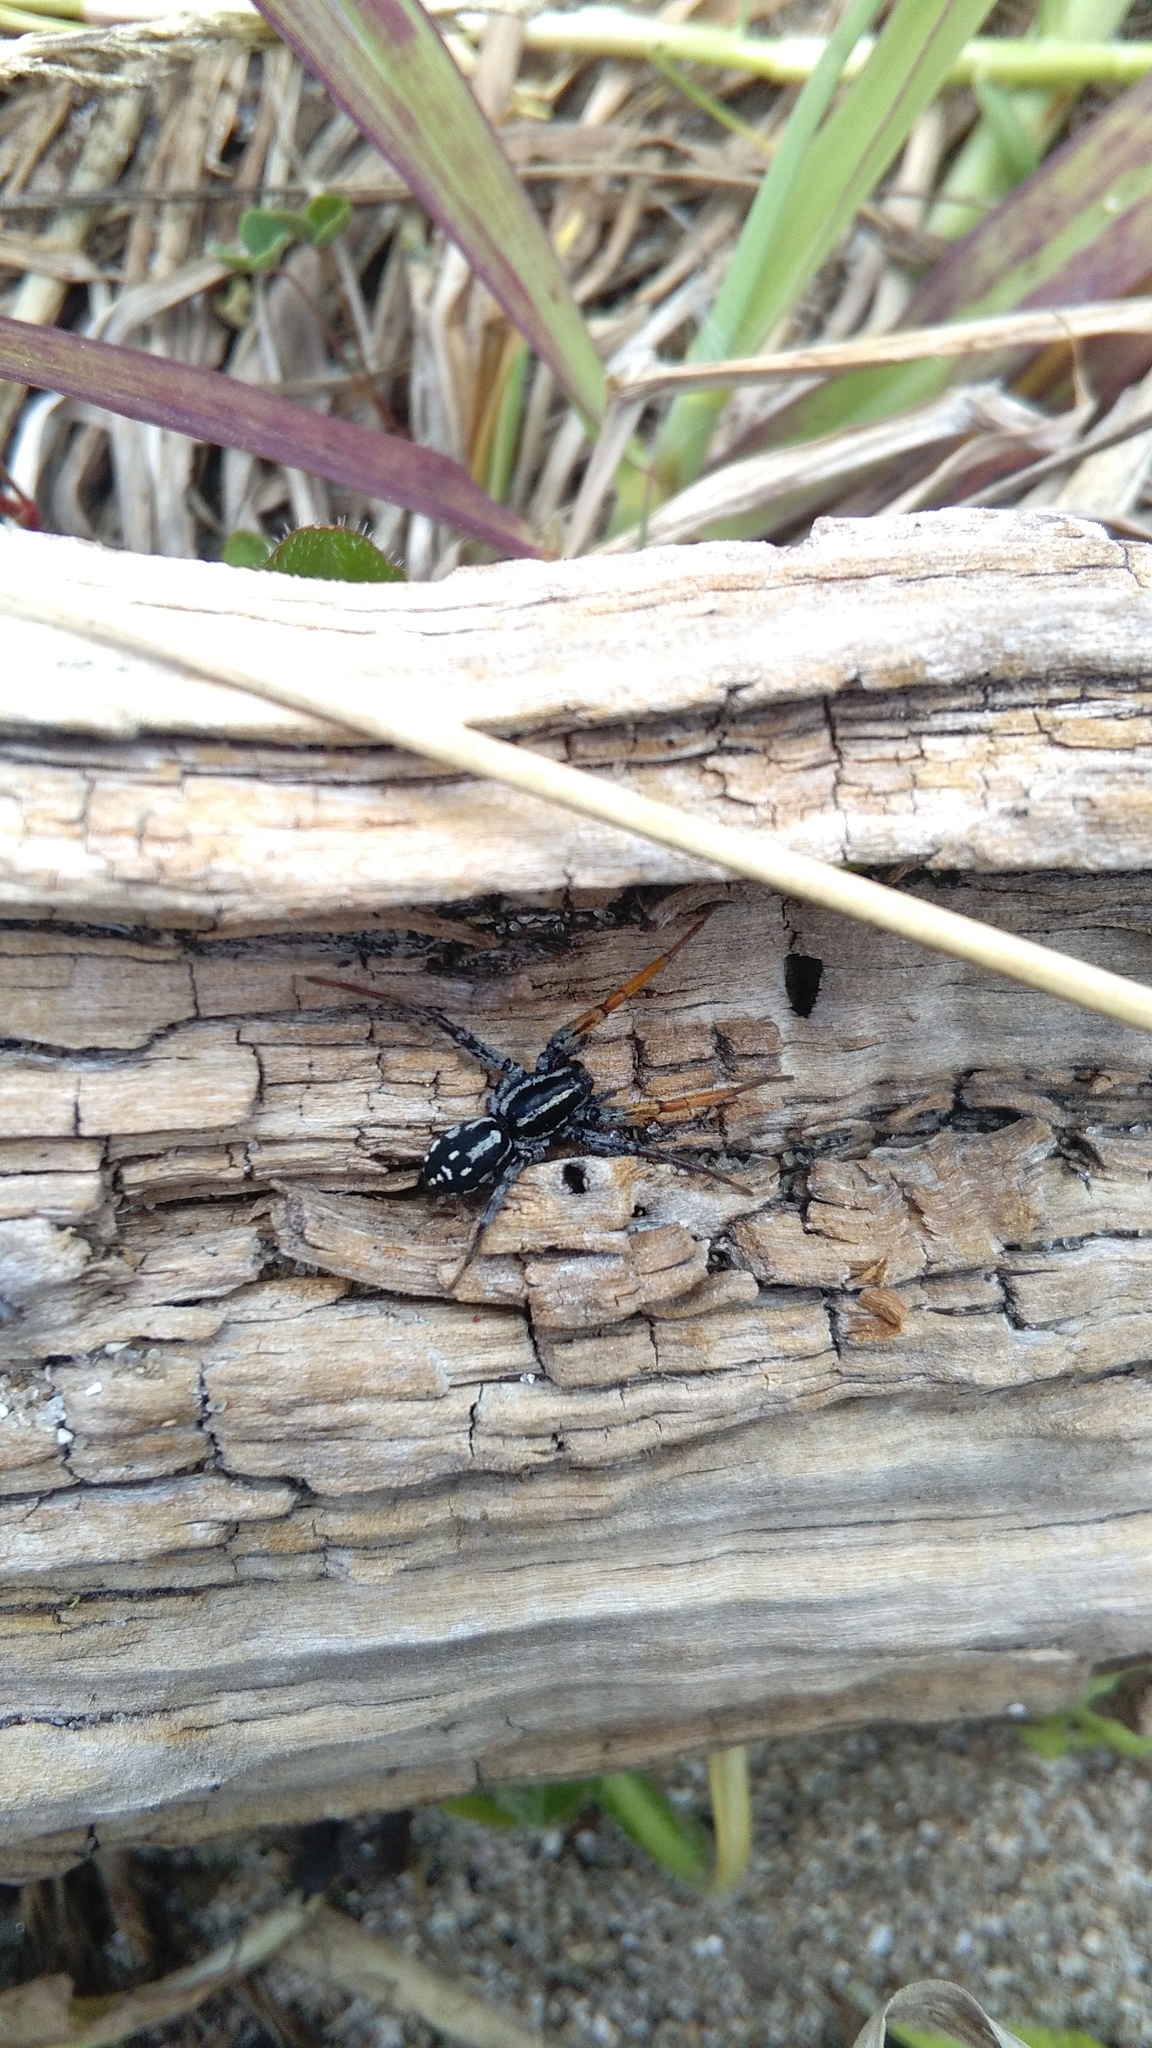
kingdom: Animalia
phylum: Arthropoda
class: Arachnida
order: Araneae
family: Corinnidae
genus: Nyssus
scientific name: Nyssus coloripes
